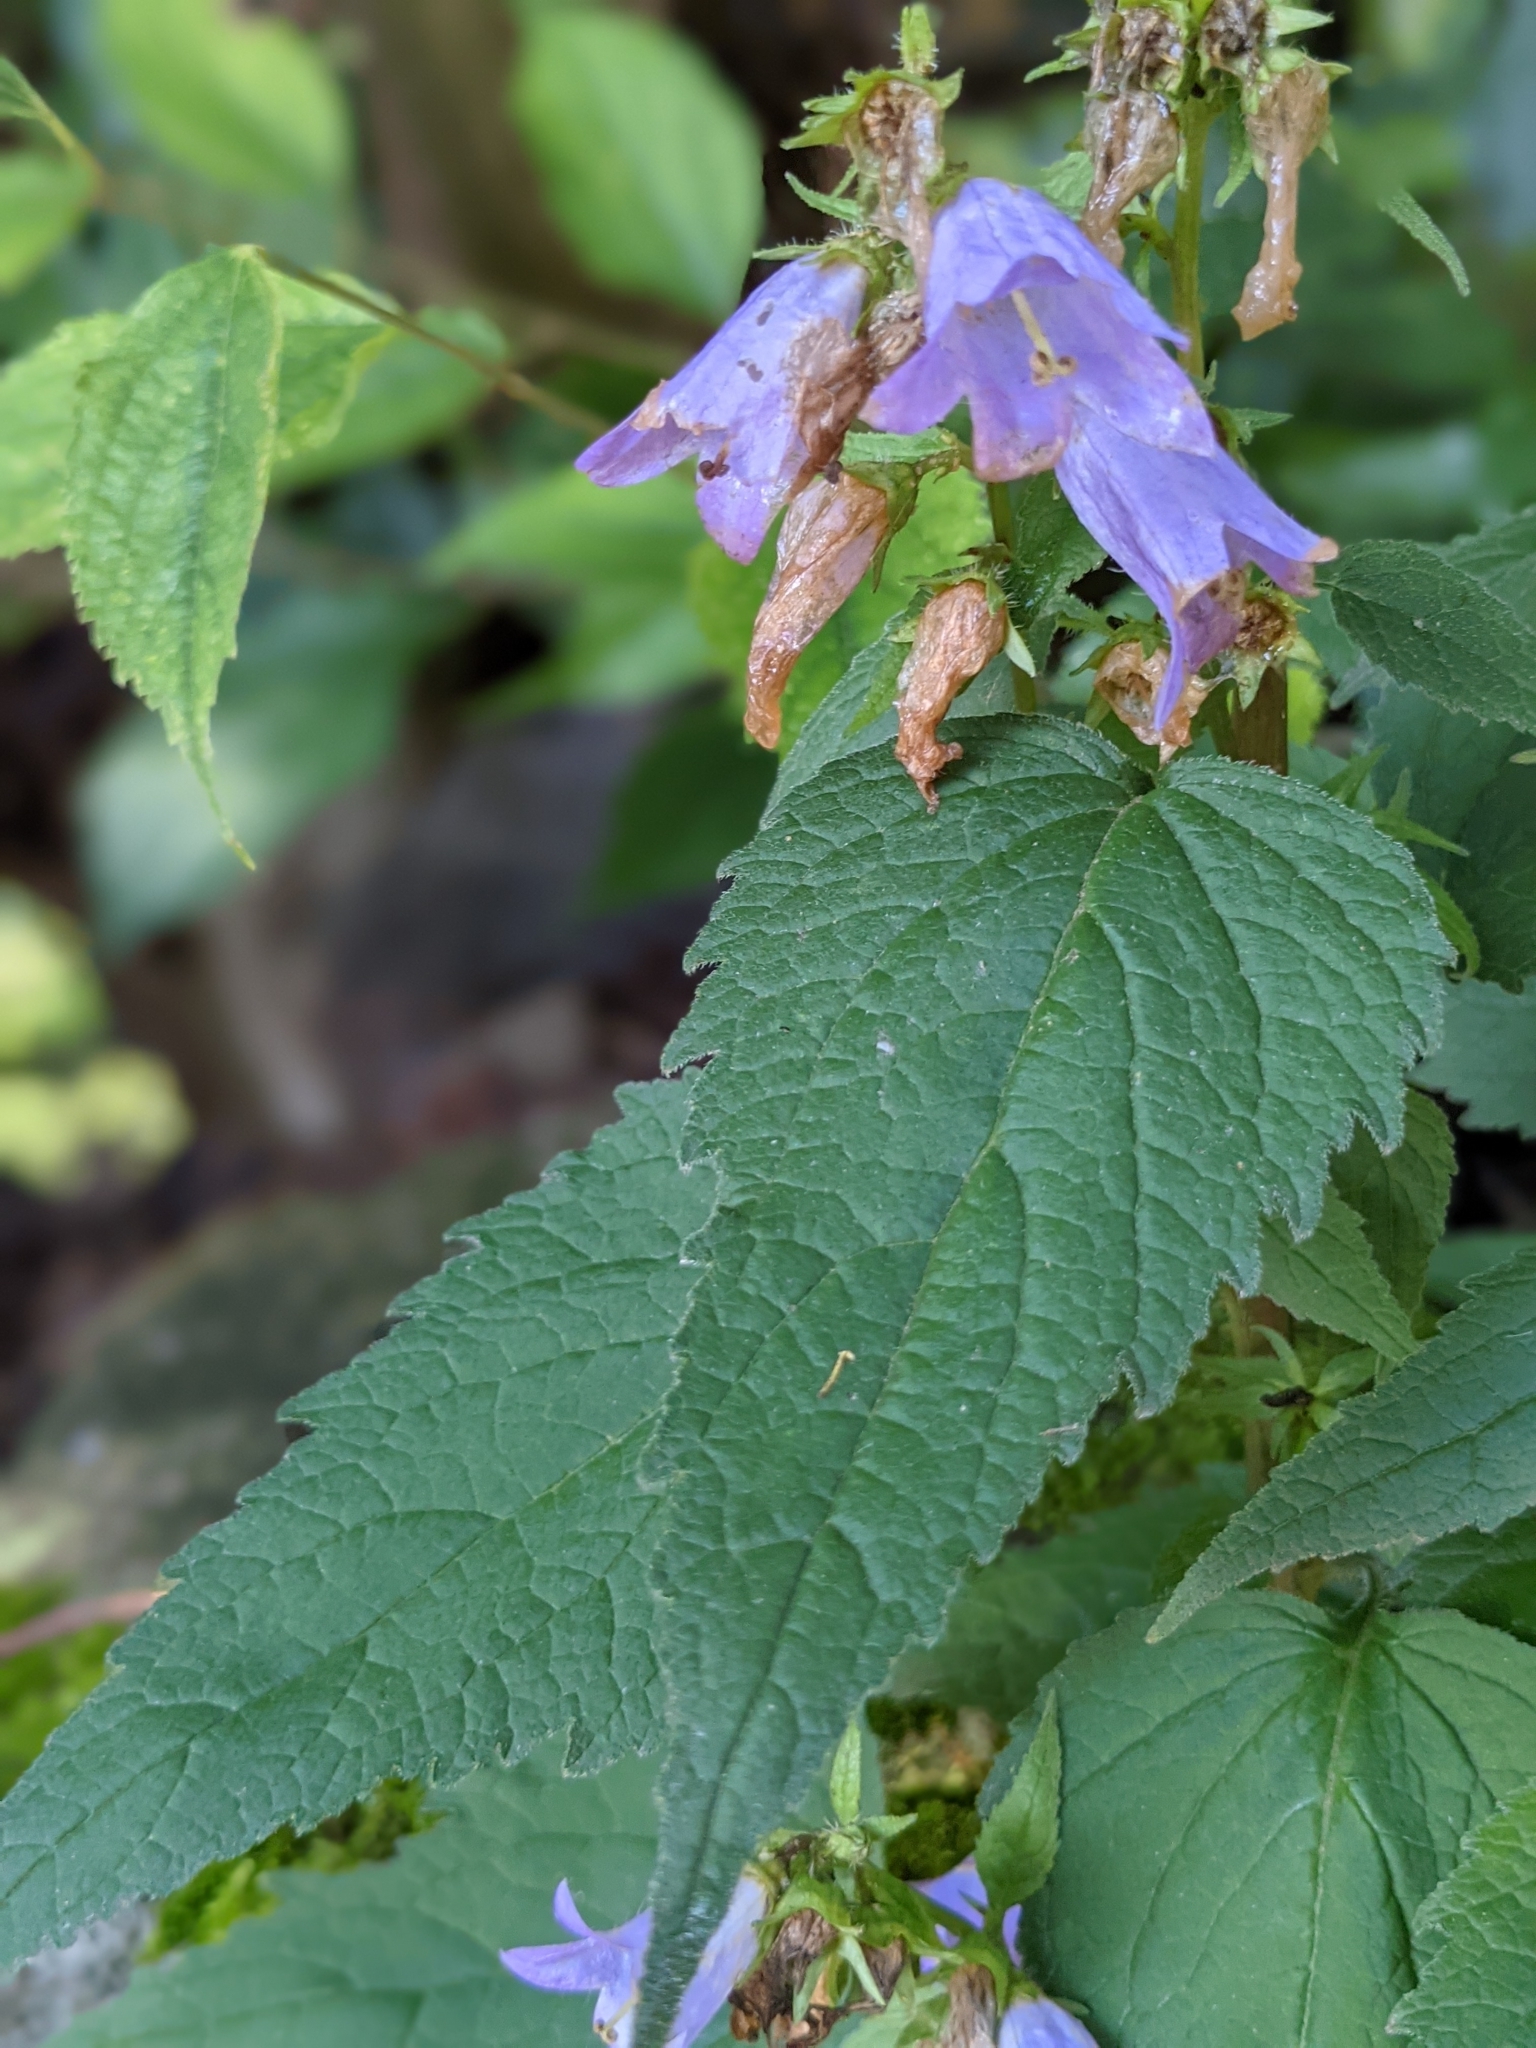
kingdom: Plantae
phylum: Tracheophyta
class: Magnoliopsida
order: Asterales
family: Campanulaceae
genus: Campanula
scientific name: Campanula trachelium
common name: Nettle-leaved bellflower
